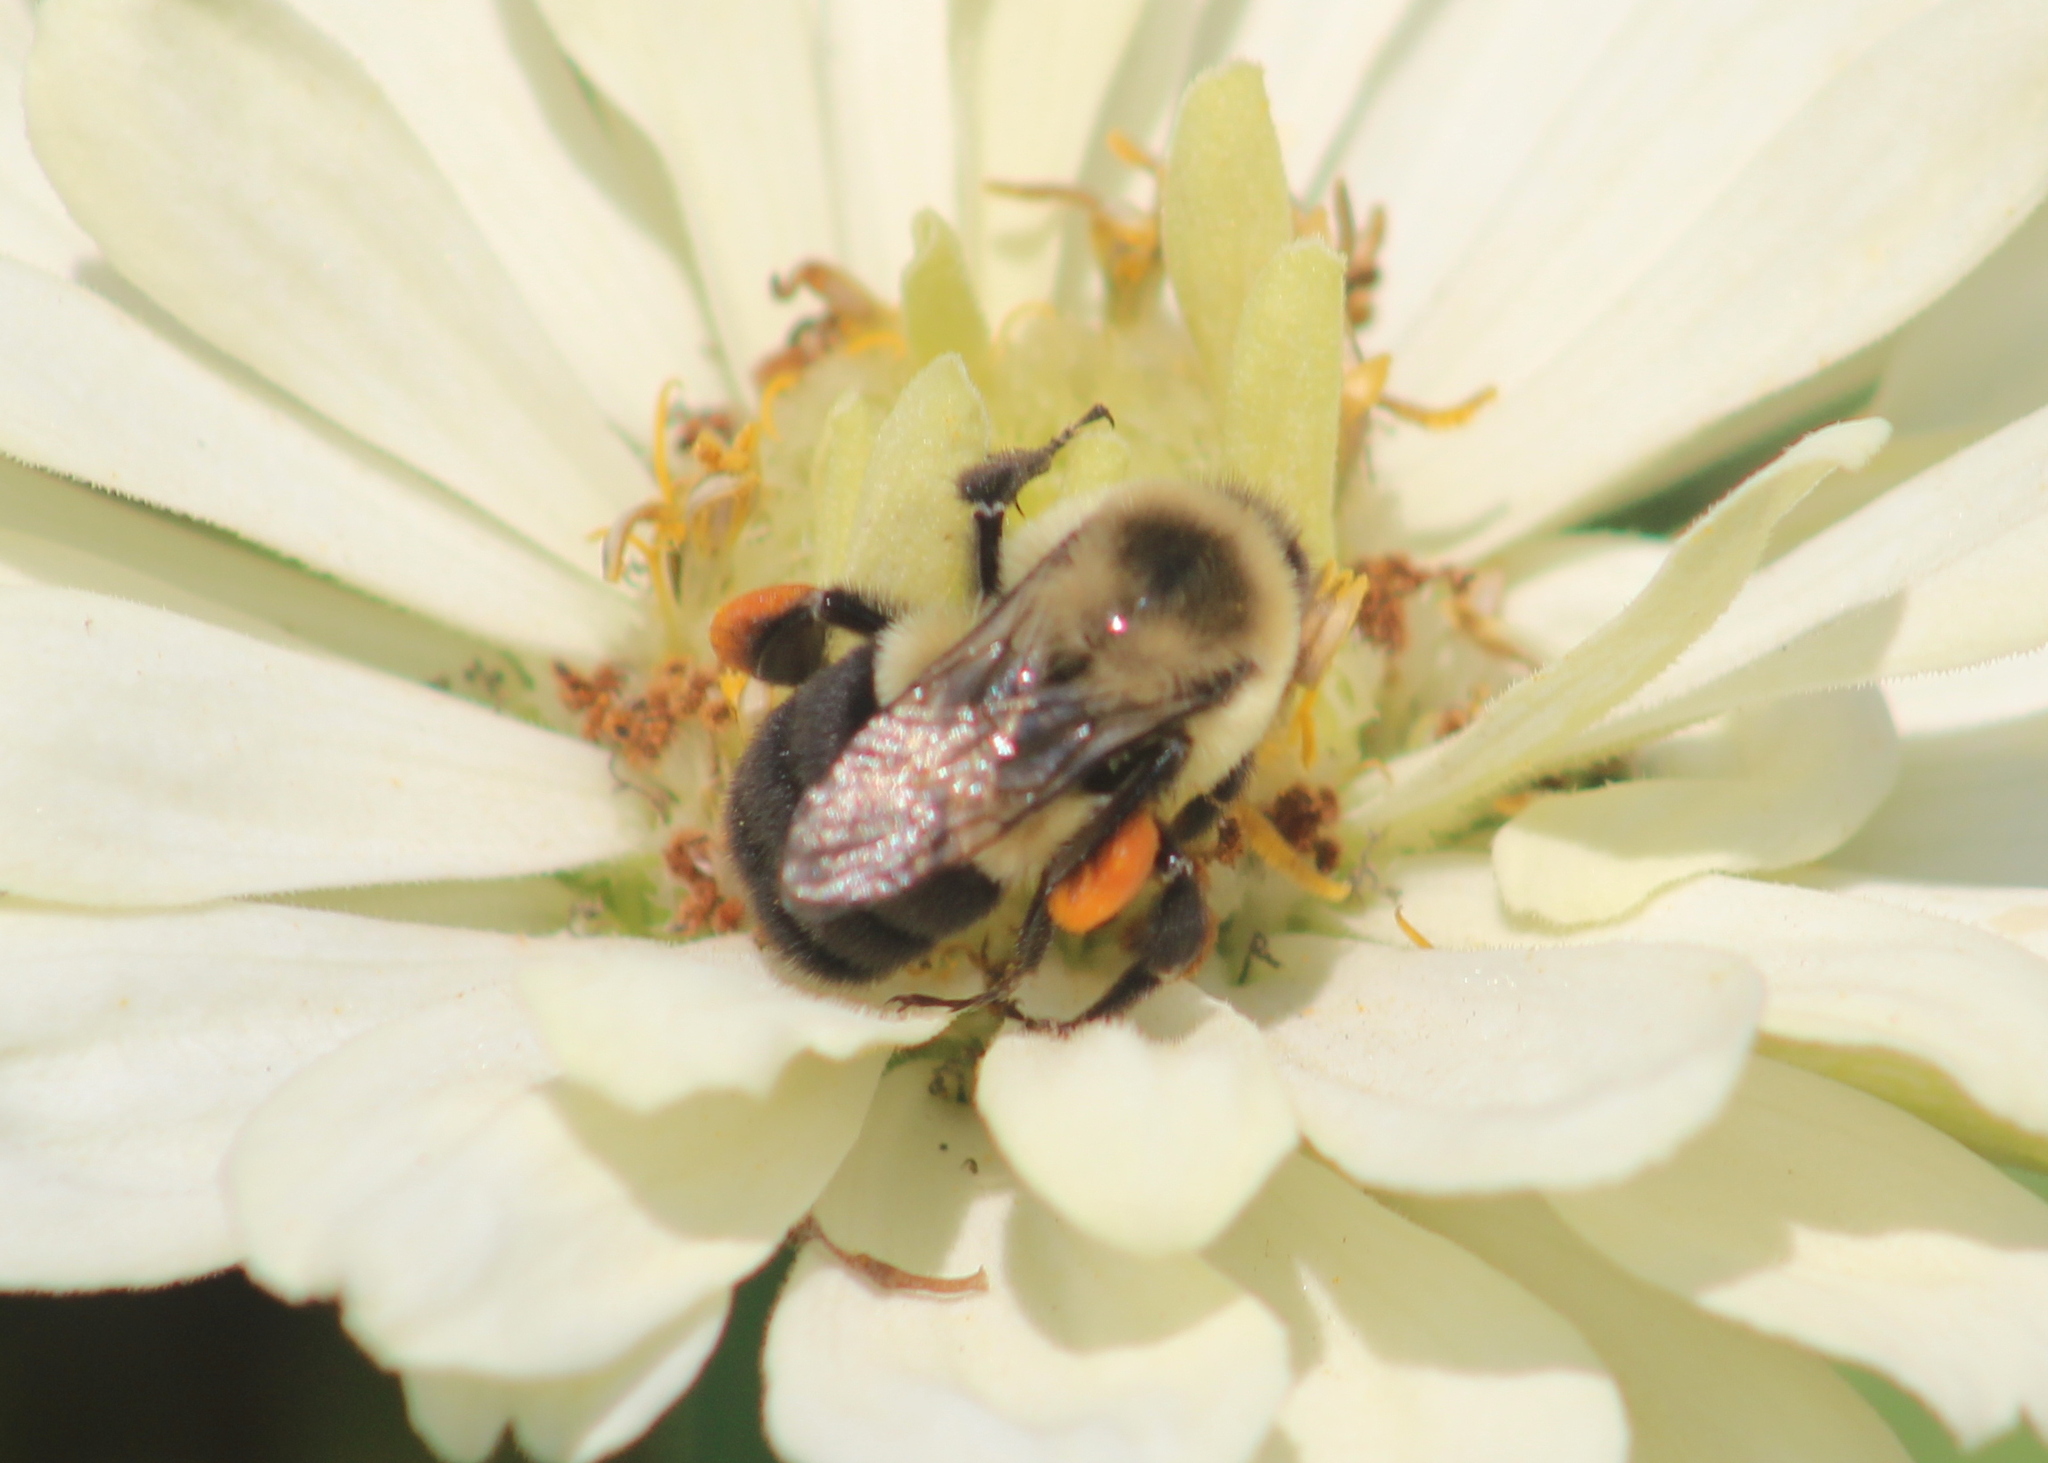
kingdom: Animalia
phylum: Arthropoda
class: Insecta
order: Hymenoptera
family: Apidae
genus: Bombus
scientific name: Bombus impatiens
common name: Common eastern bumble bee
